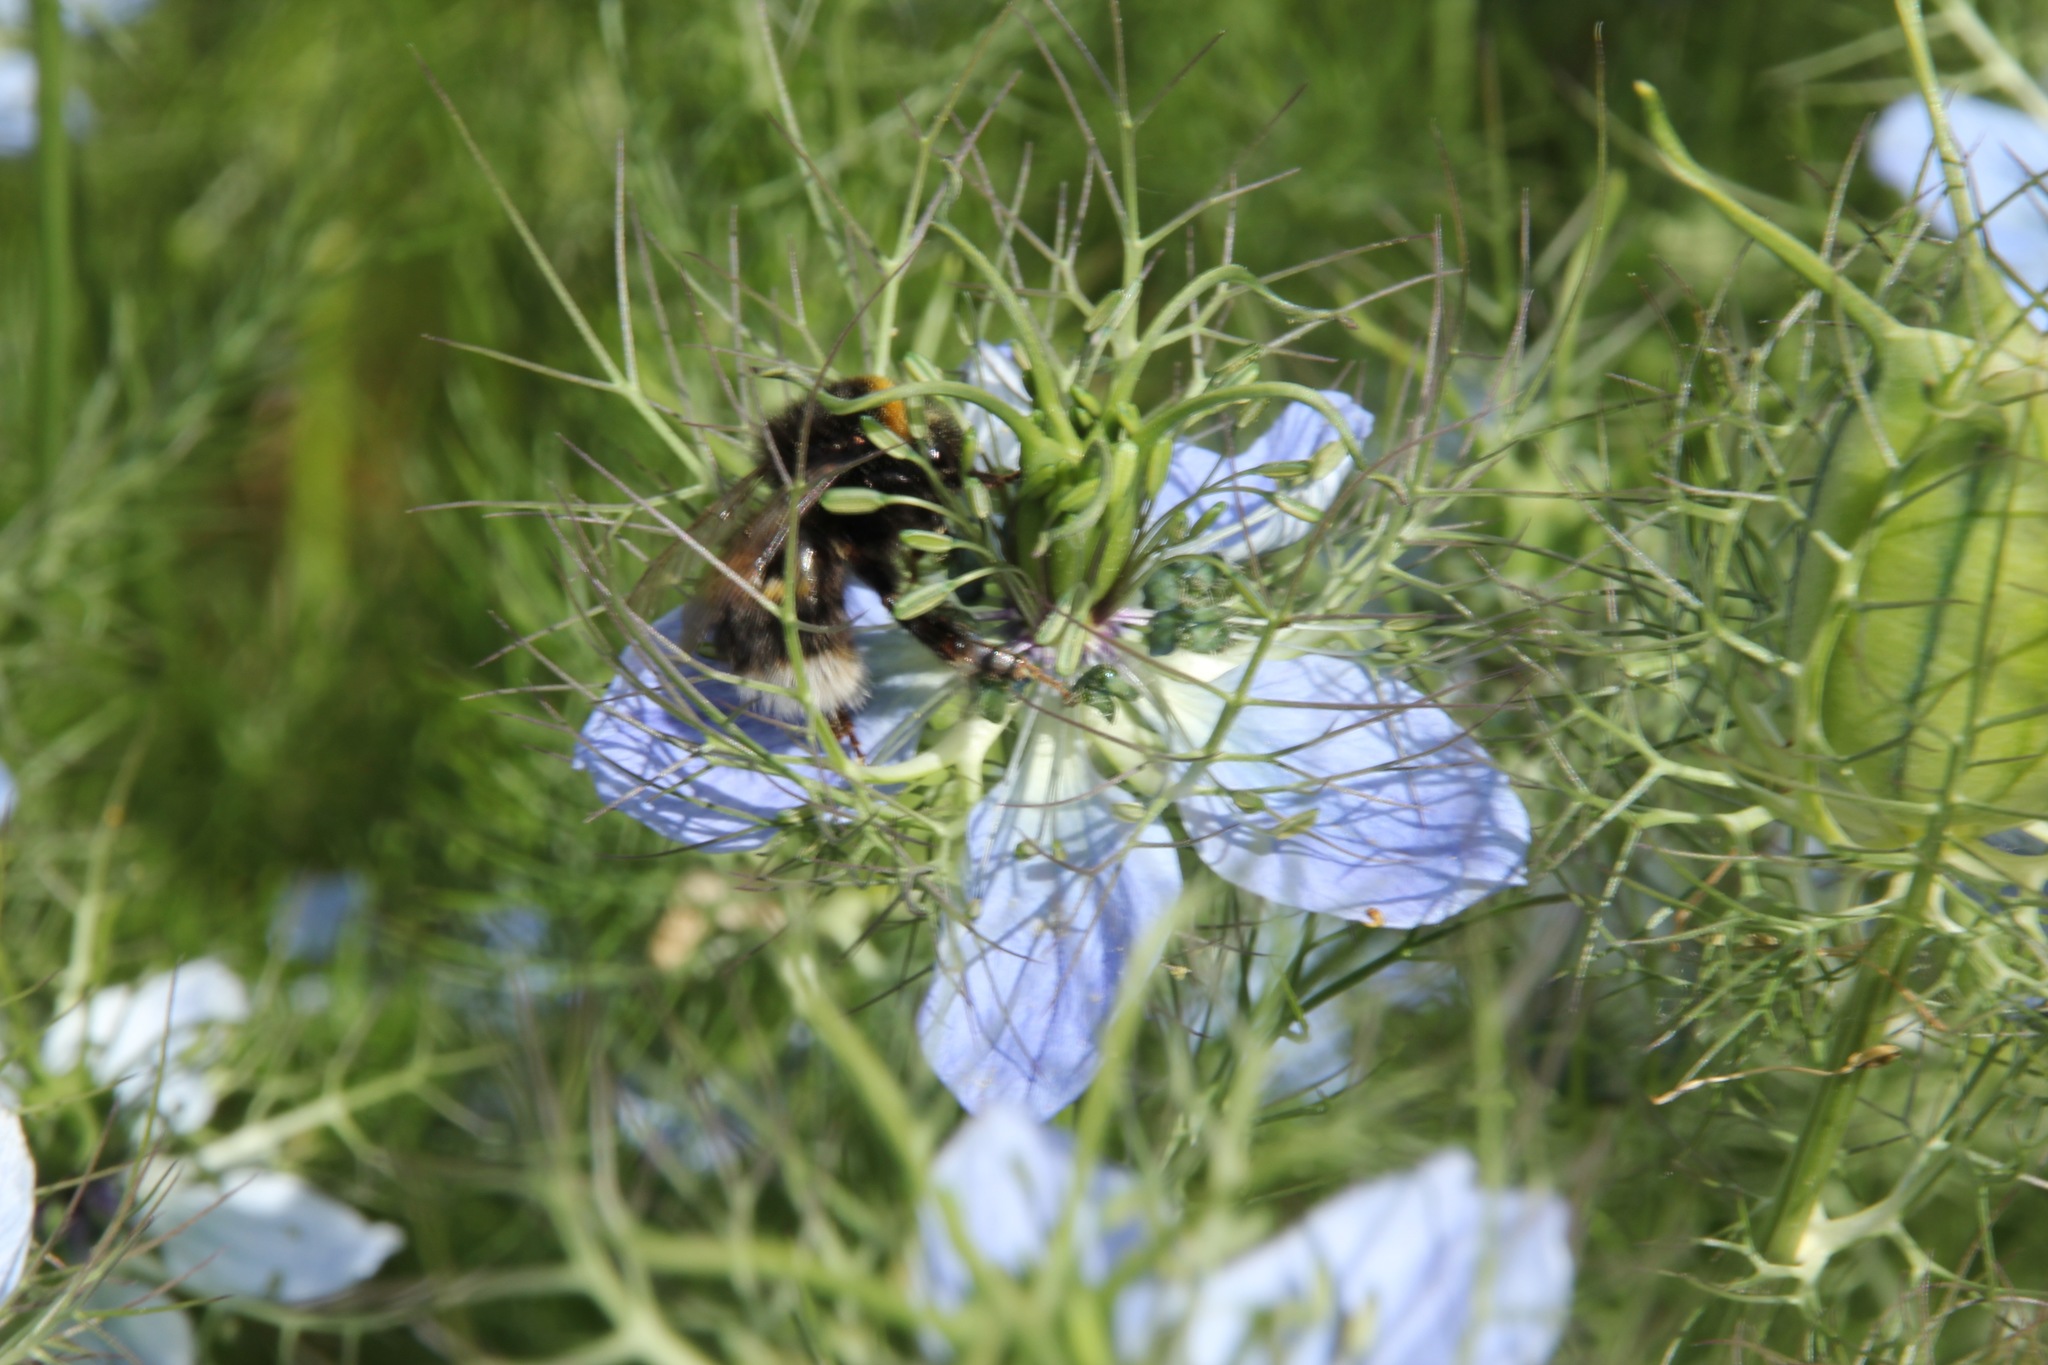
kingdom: Animalia
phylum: Arthropoda
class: Insecta
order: Hymenoptera
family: Apidae
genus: Bombus
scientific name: Bombus terrestris
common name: Buff-tailed bumblebee
